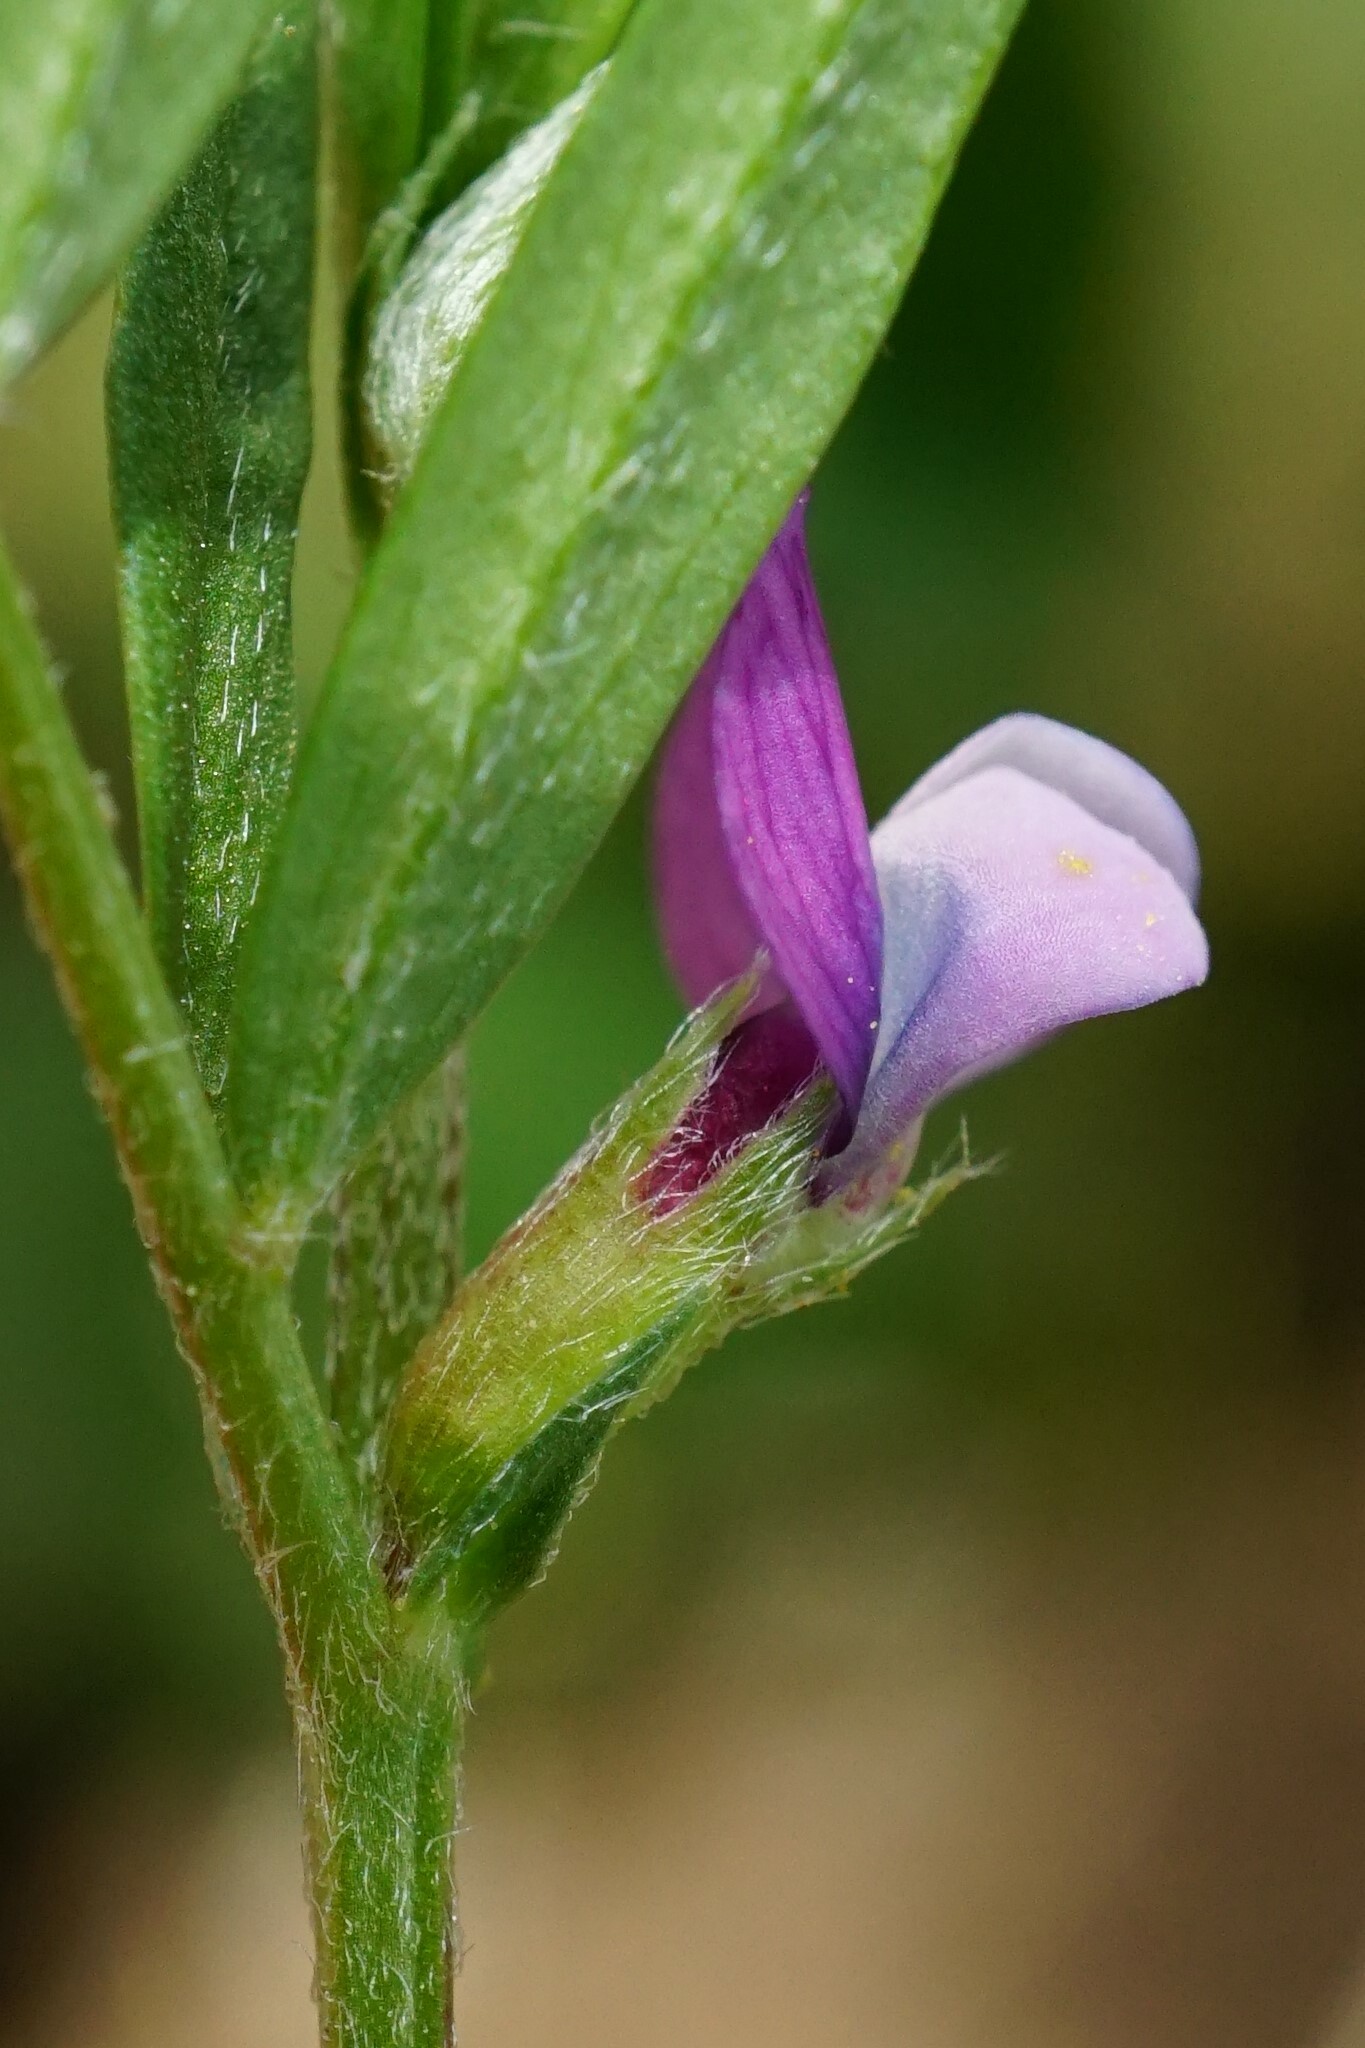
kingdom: Plantae
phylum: Tracheophyta
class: Magnoliopsida
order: Fabales
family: Fabaceae
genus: Vicia
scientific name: Vicia lathyroides
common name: Spring vetch
